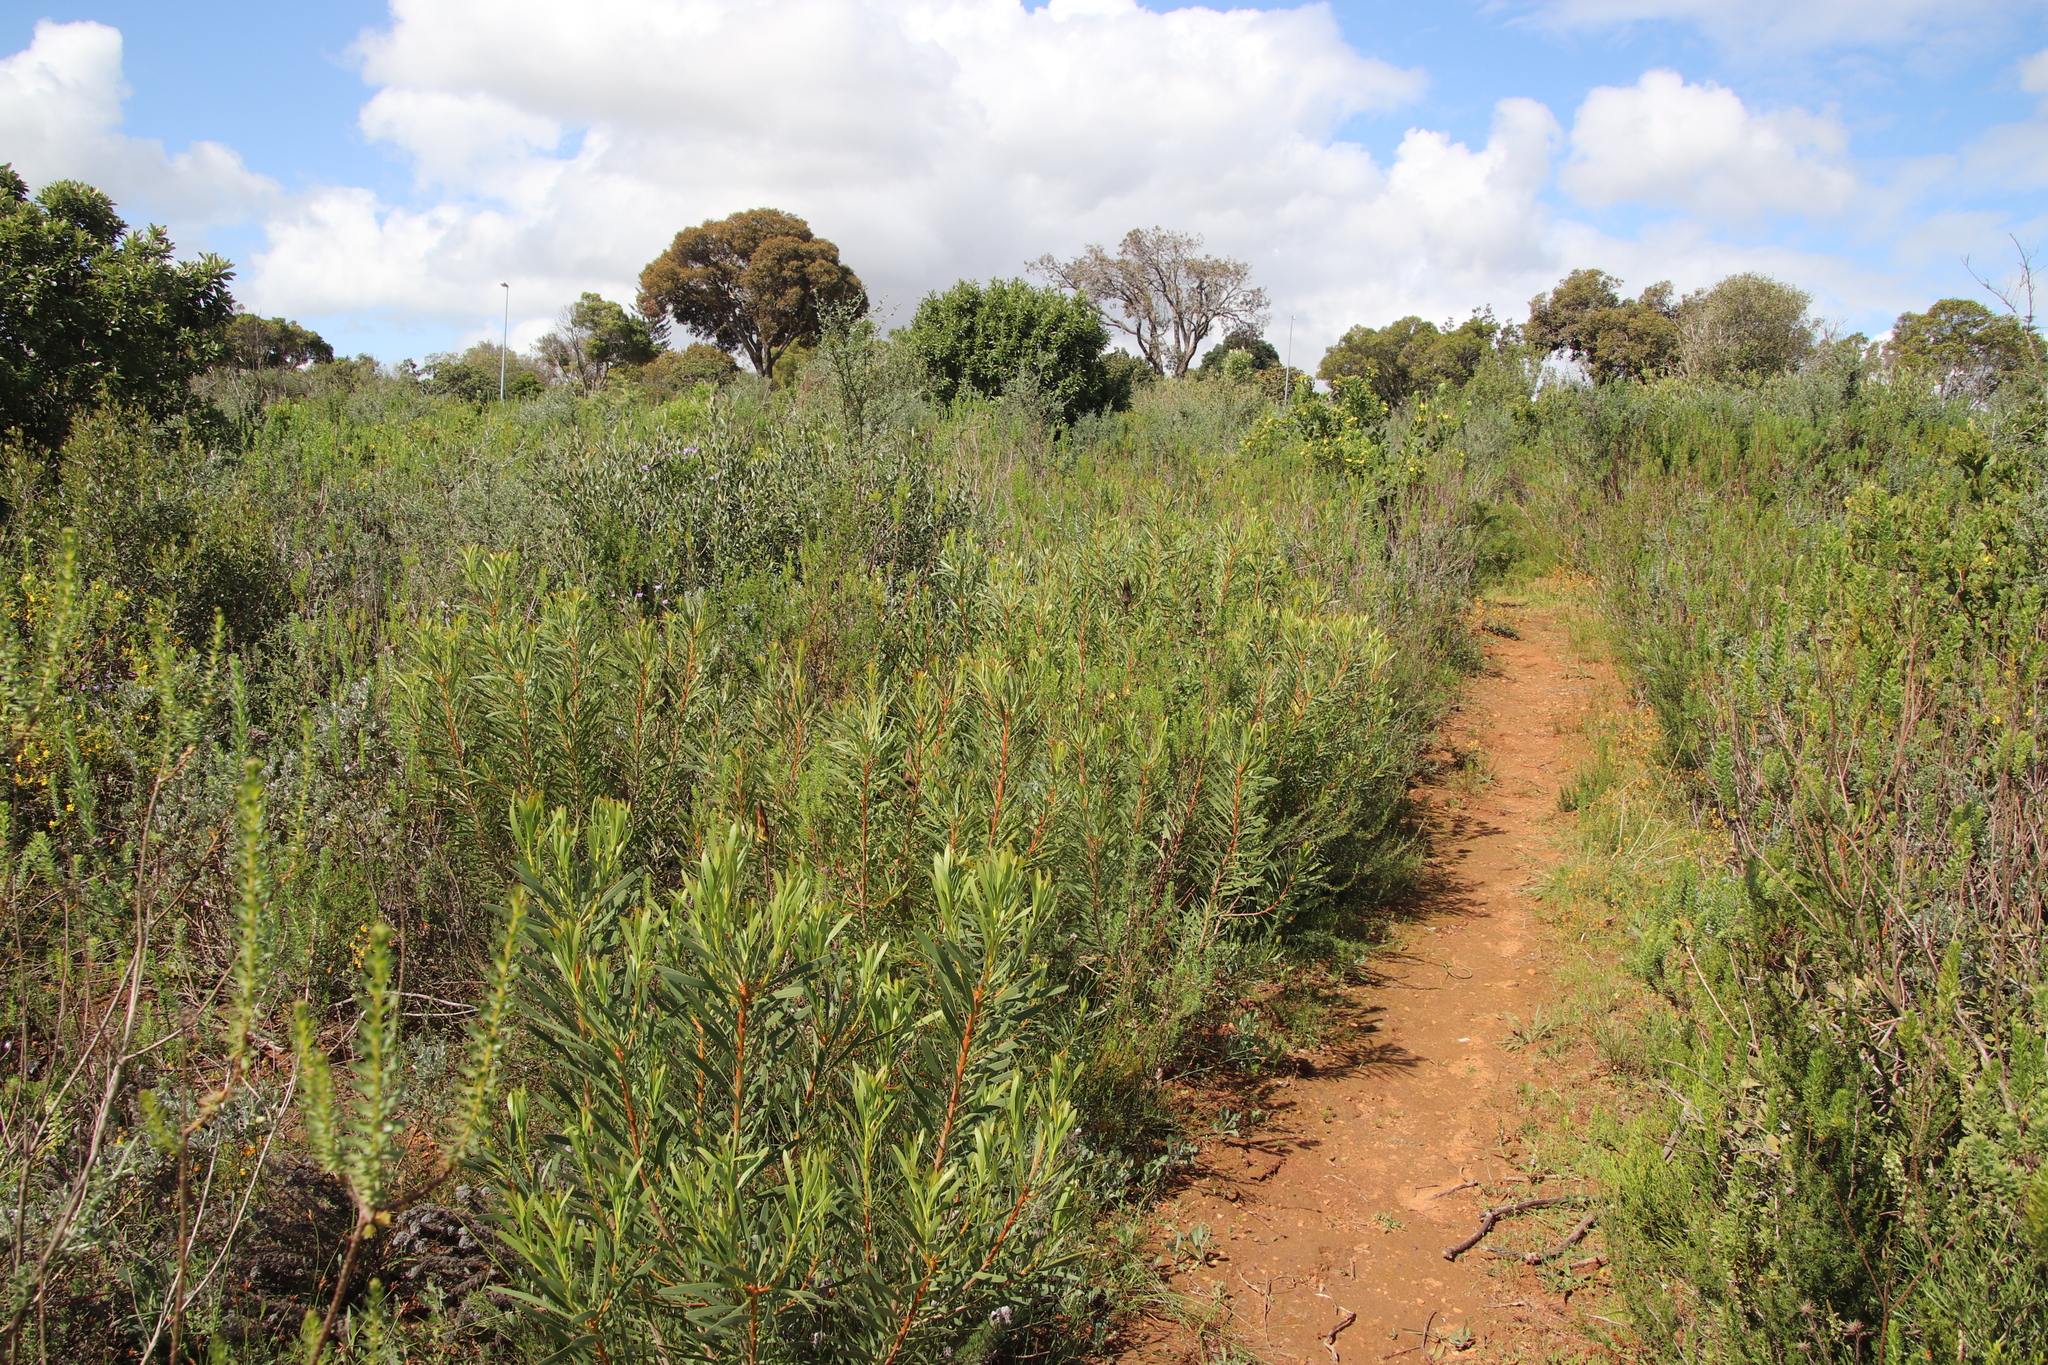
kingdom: Plantae
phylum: Tracheophyta
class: Magnoliopsida
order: Proteales
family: Proteaceae
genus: Protea
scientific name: Protea repens
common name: Sugarbush
